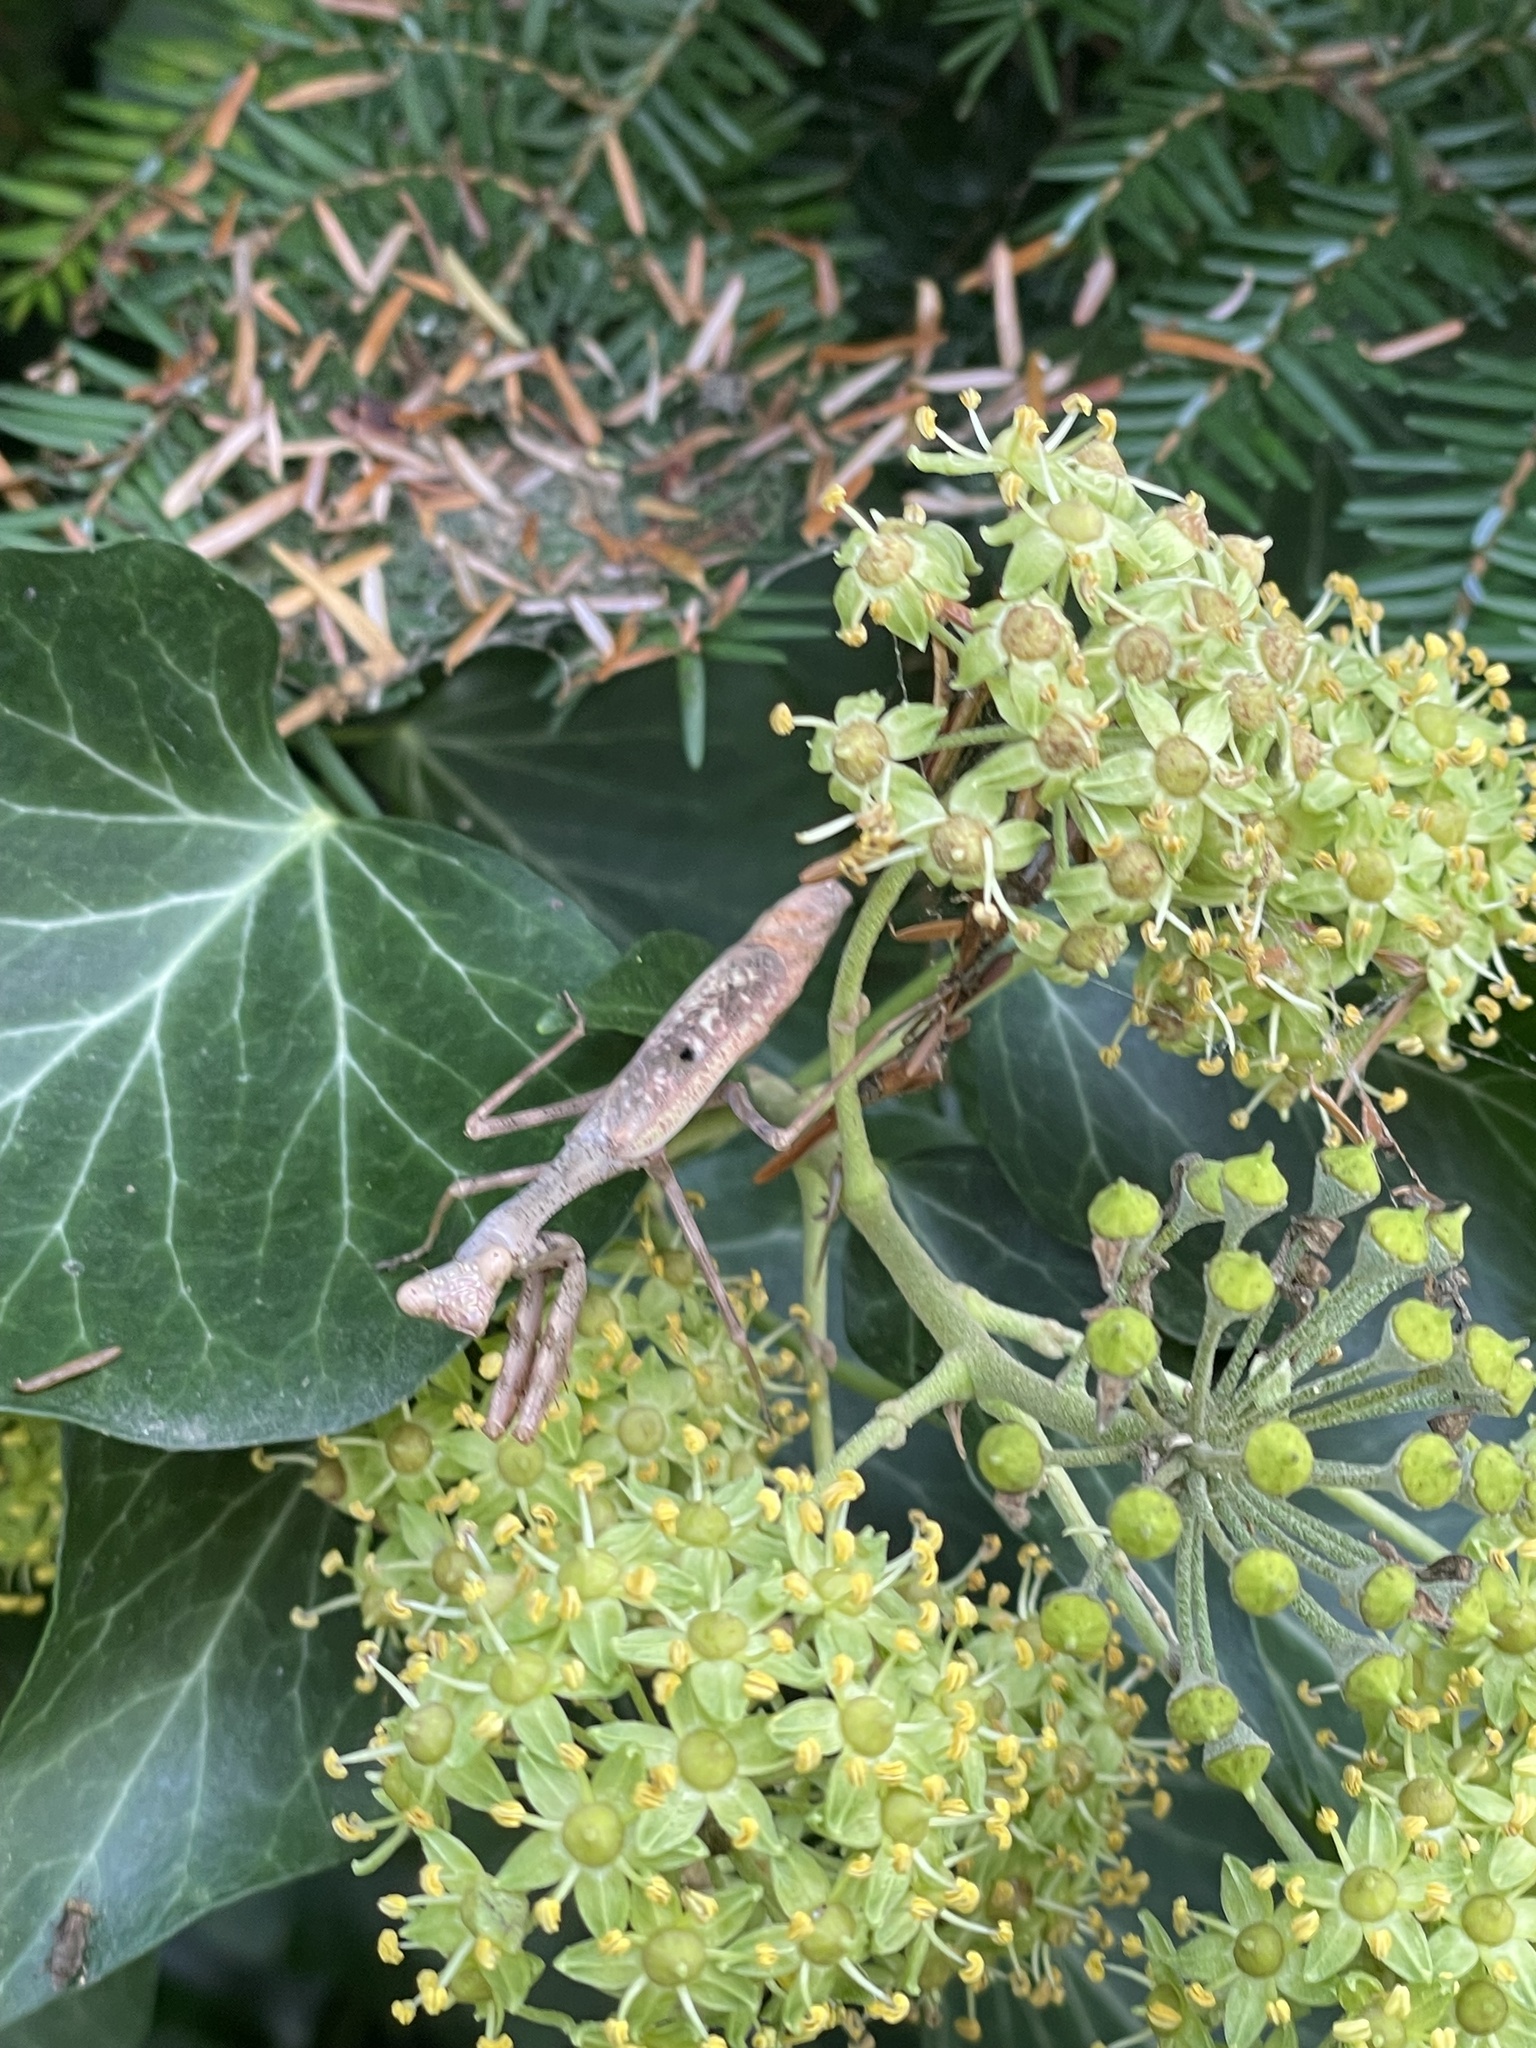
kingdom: Animalia
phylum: Arthropoda
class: Insecta
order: Mantodea
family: Mantidae
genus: Stagmomantis
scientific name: Stagmomantis carolina
